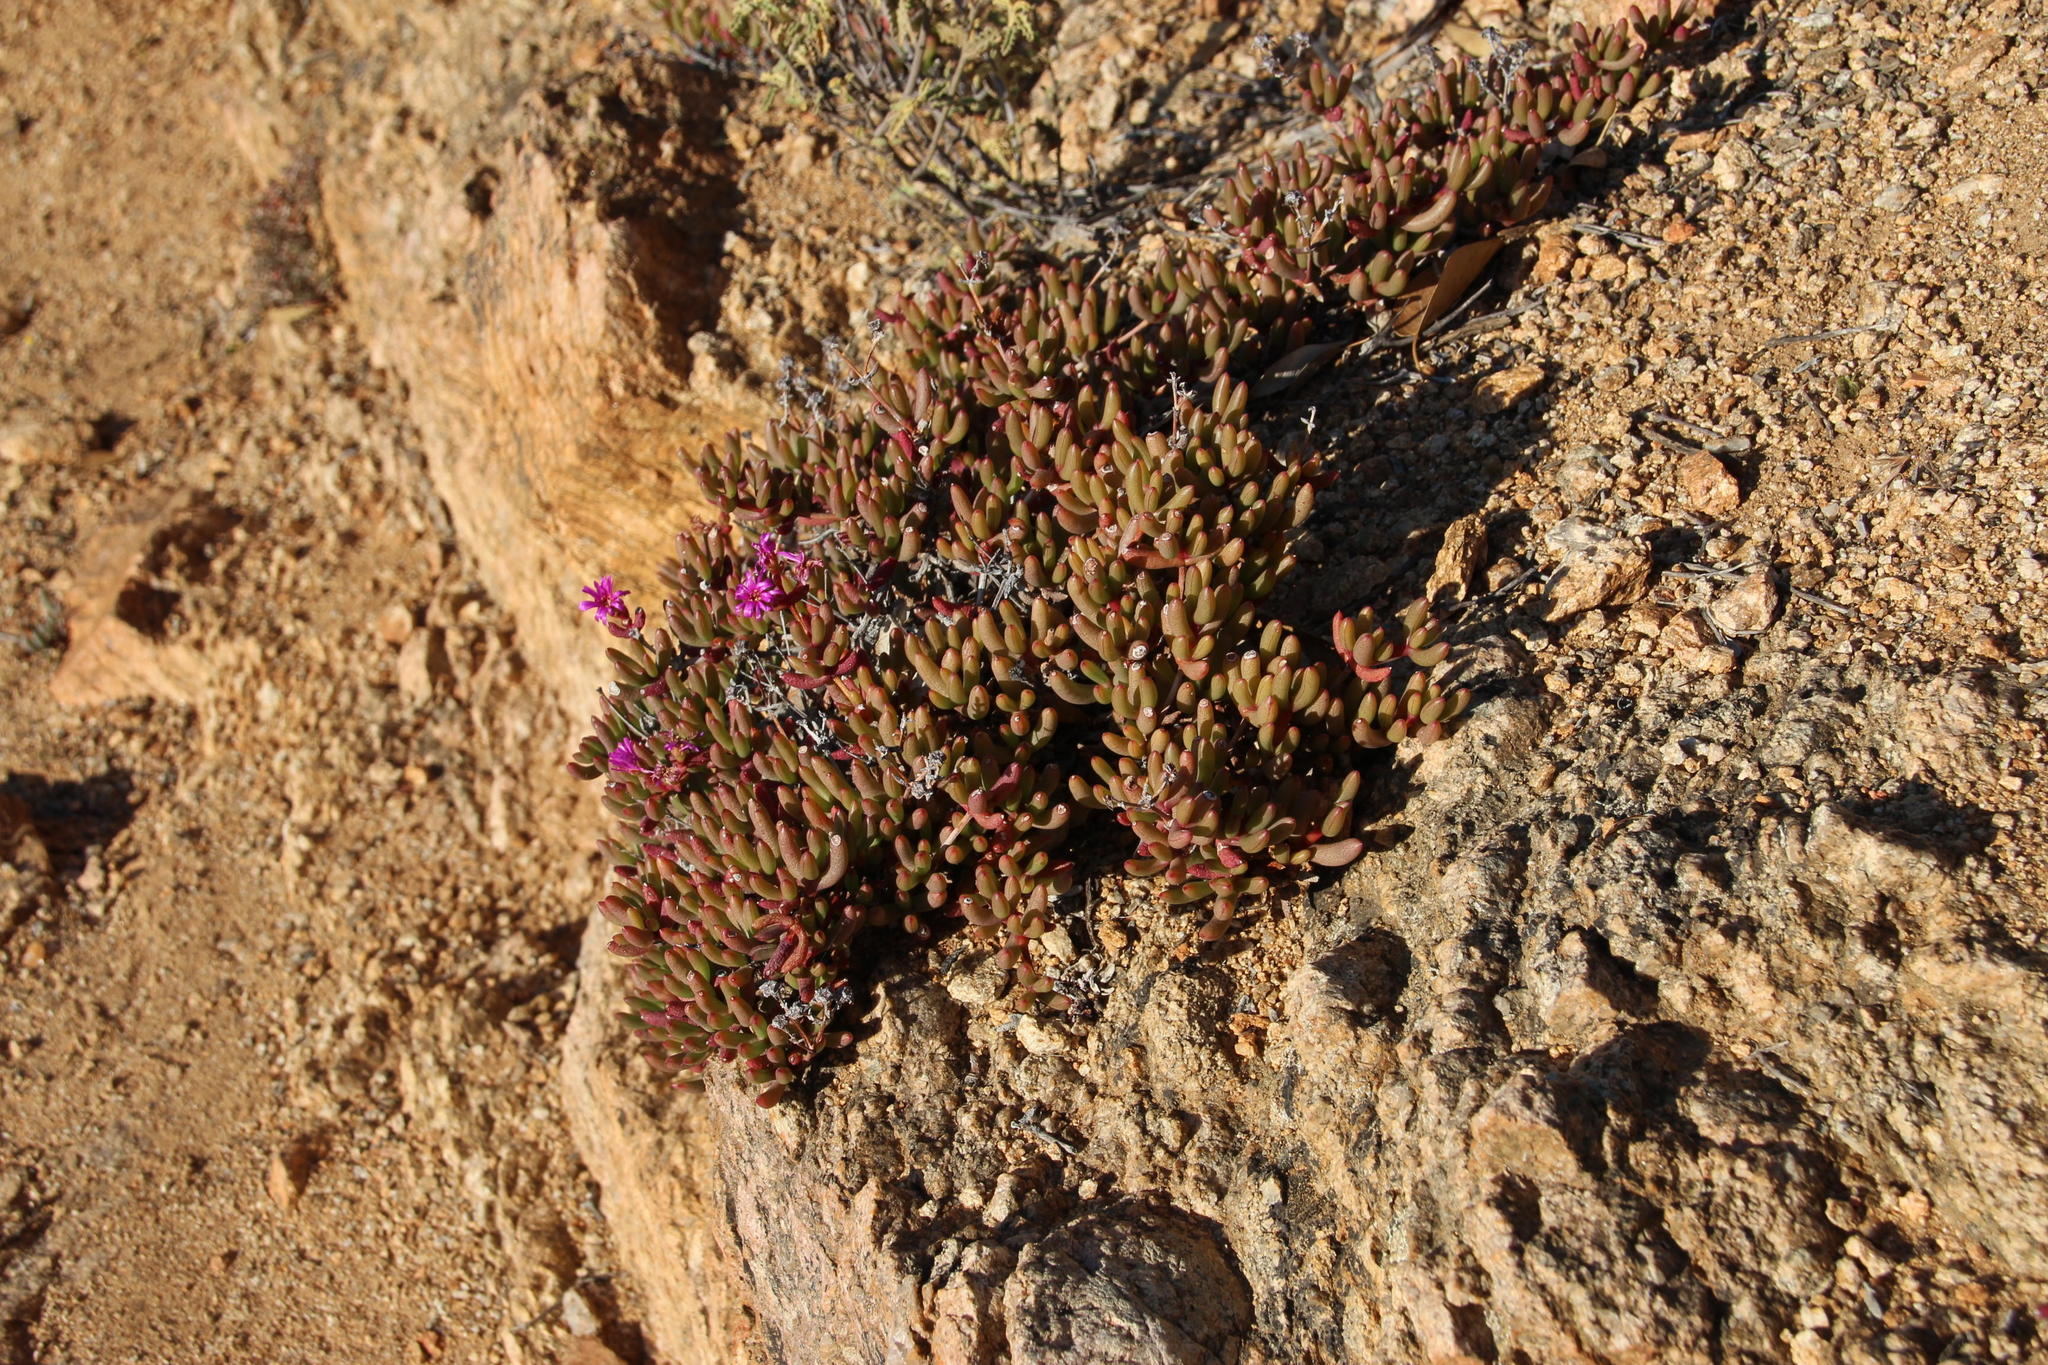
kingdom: Plantae
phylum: Tracheophyta
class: Magnoliopsida
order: Caryophyllales
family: Aizoaceae
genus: Ruschia
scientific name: Ruschia viridifolia
